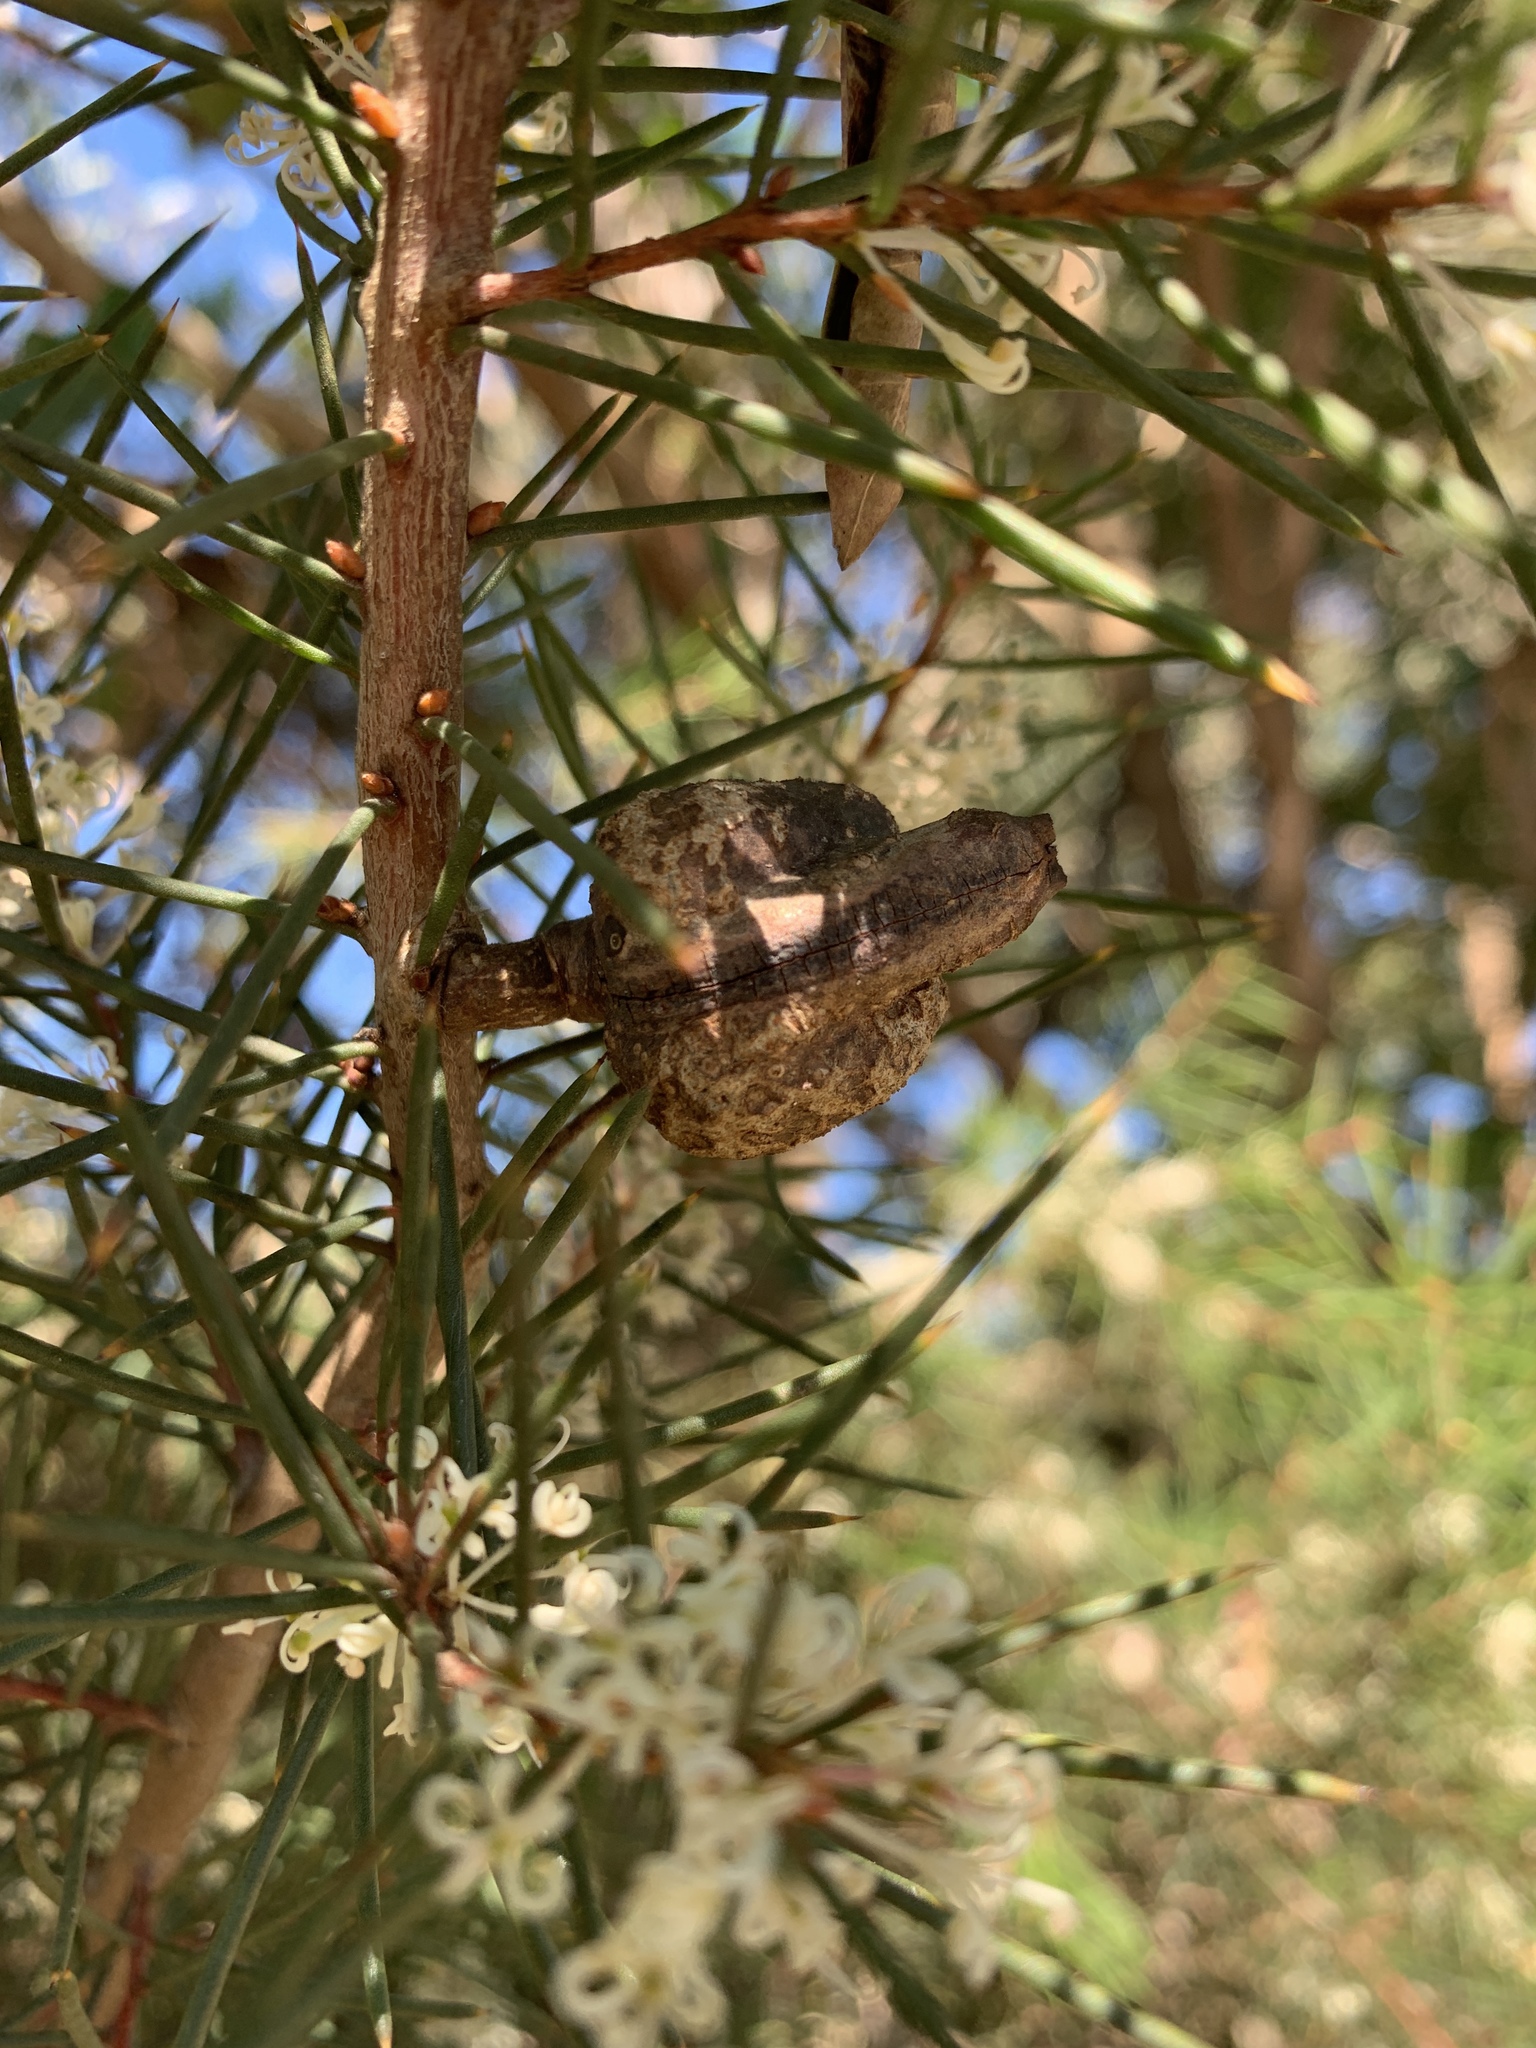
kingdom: Plantae
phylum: Tracheophyta
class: Magnoliopsida
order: Proteales
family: Proteaceae
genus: Hakea
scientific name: Hakea sericea
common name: Needle bush
